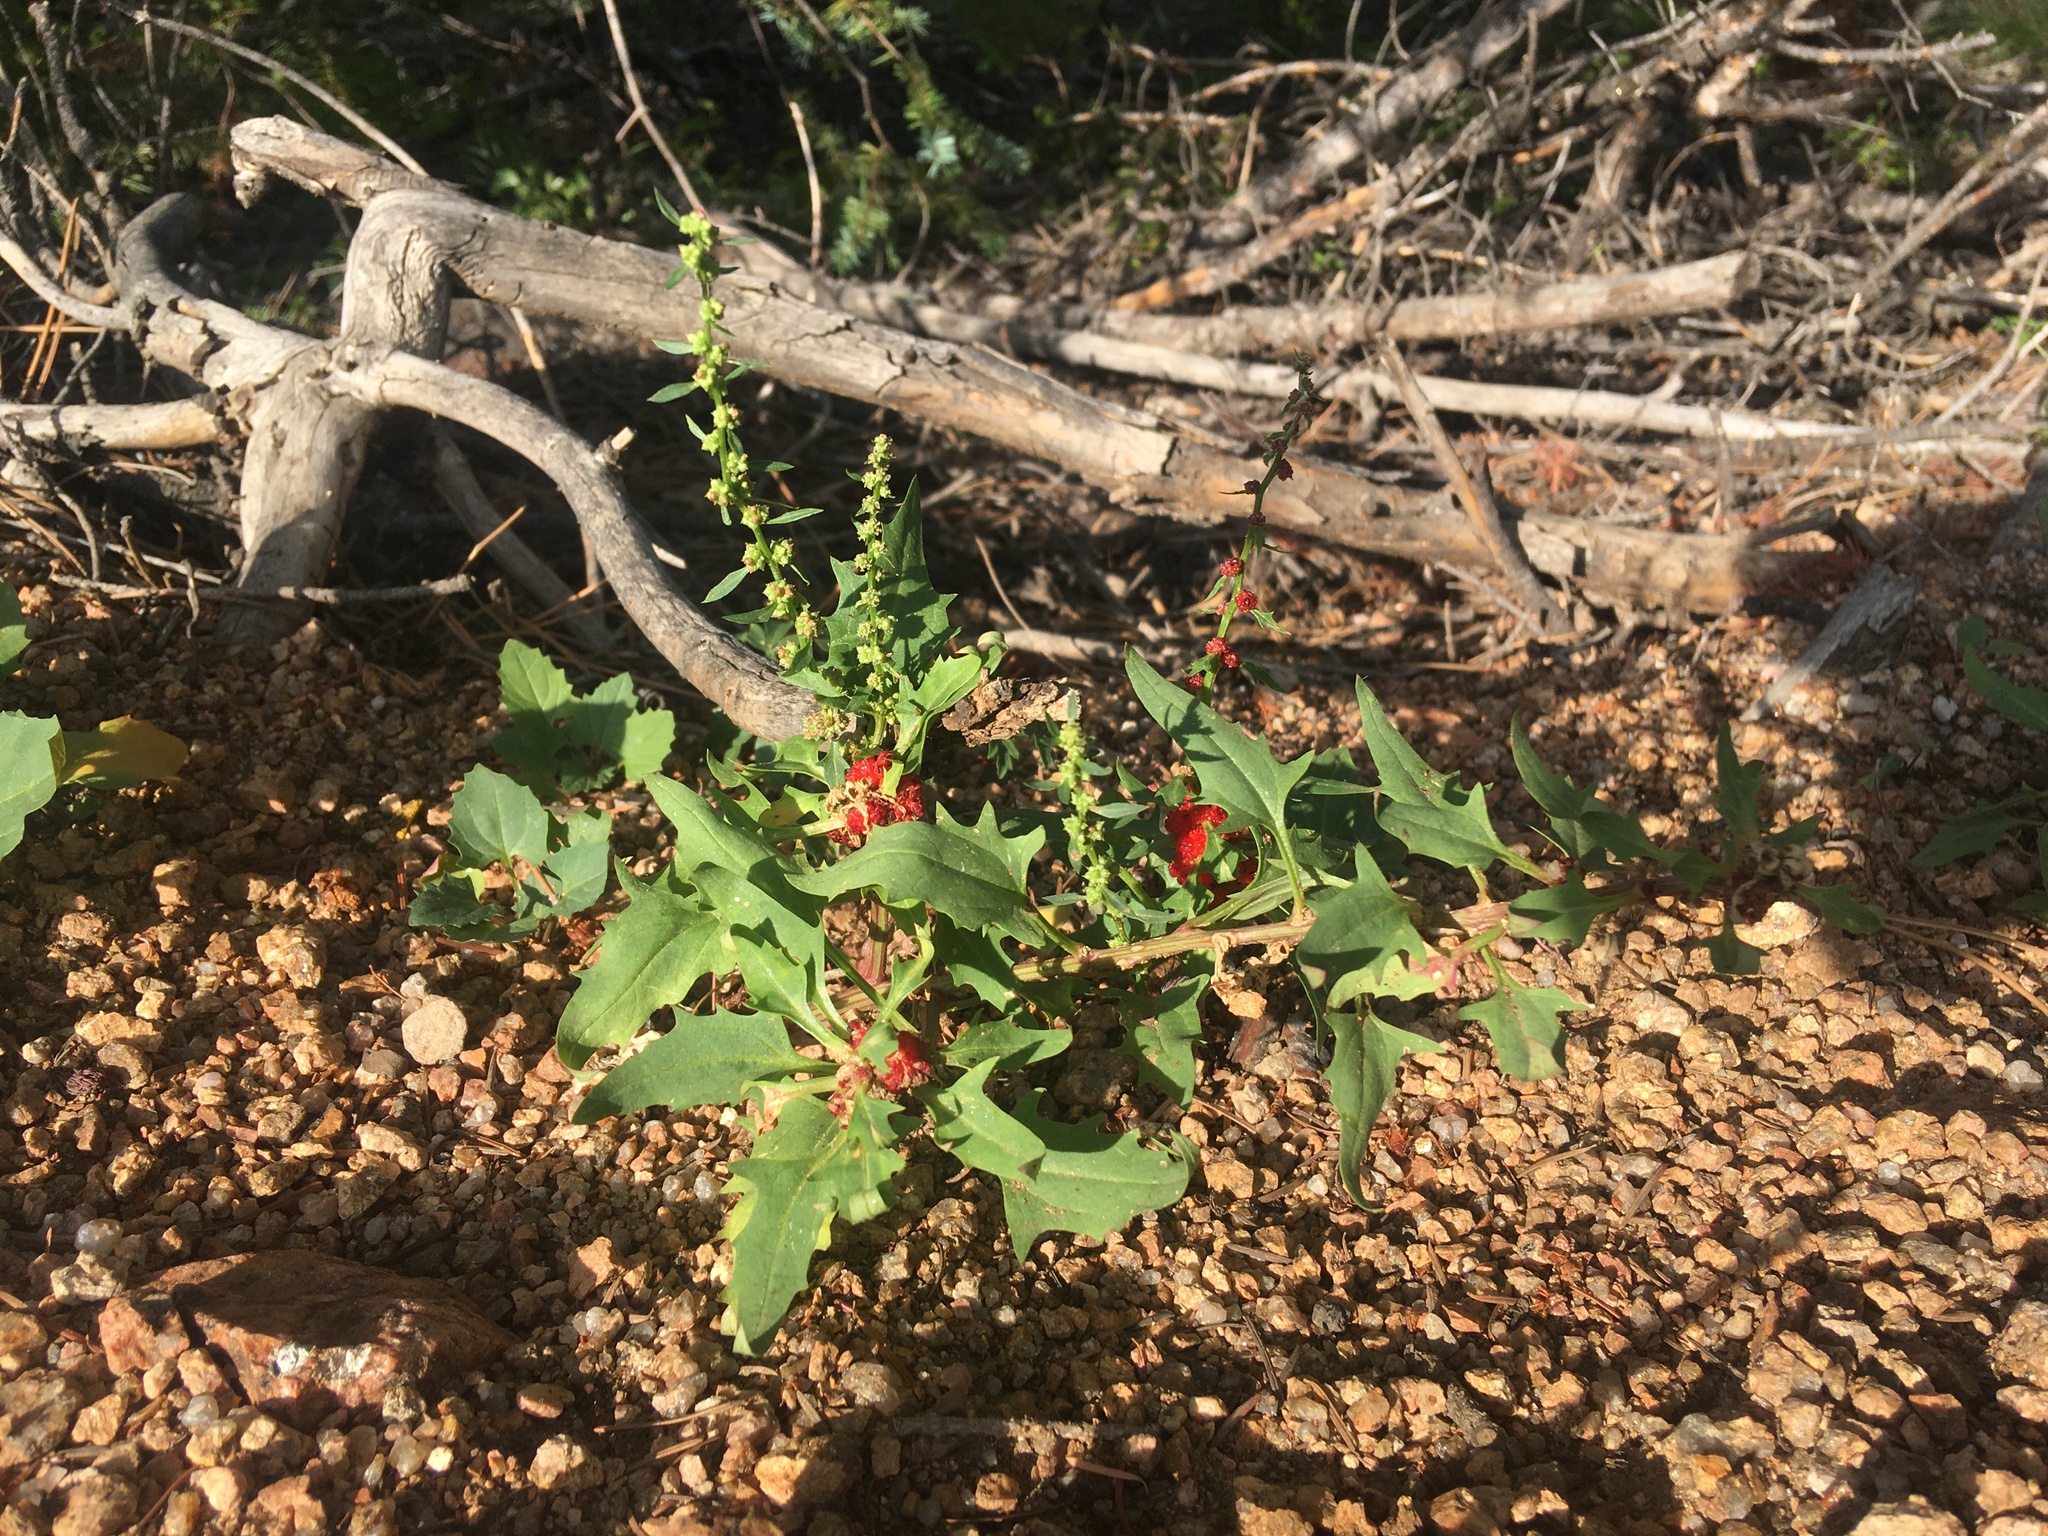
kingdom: Plantae
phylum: Tracheophyta
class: Magnoliopsida
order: Caryophyllales
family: Amaranthaceae
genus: Blitum
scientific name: Blitum capitatum
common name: Strawberry-blight
